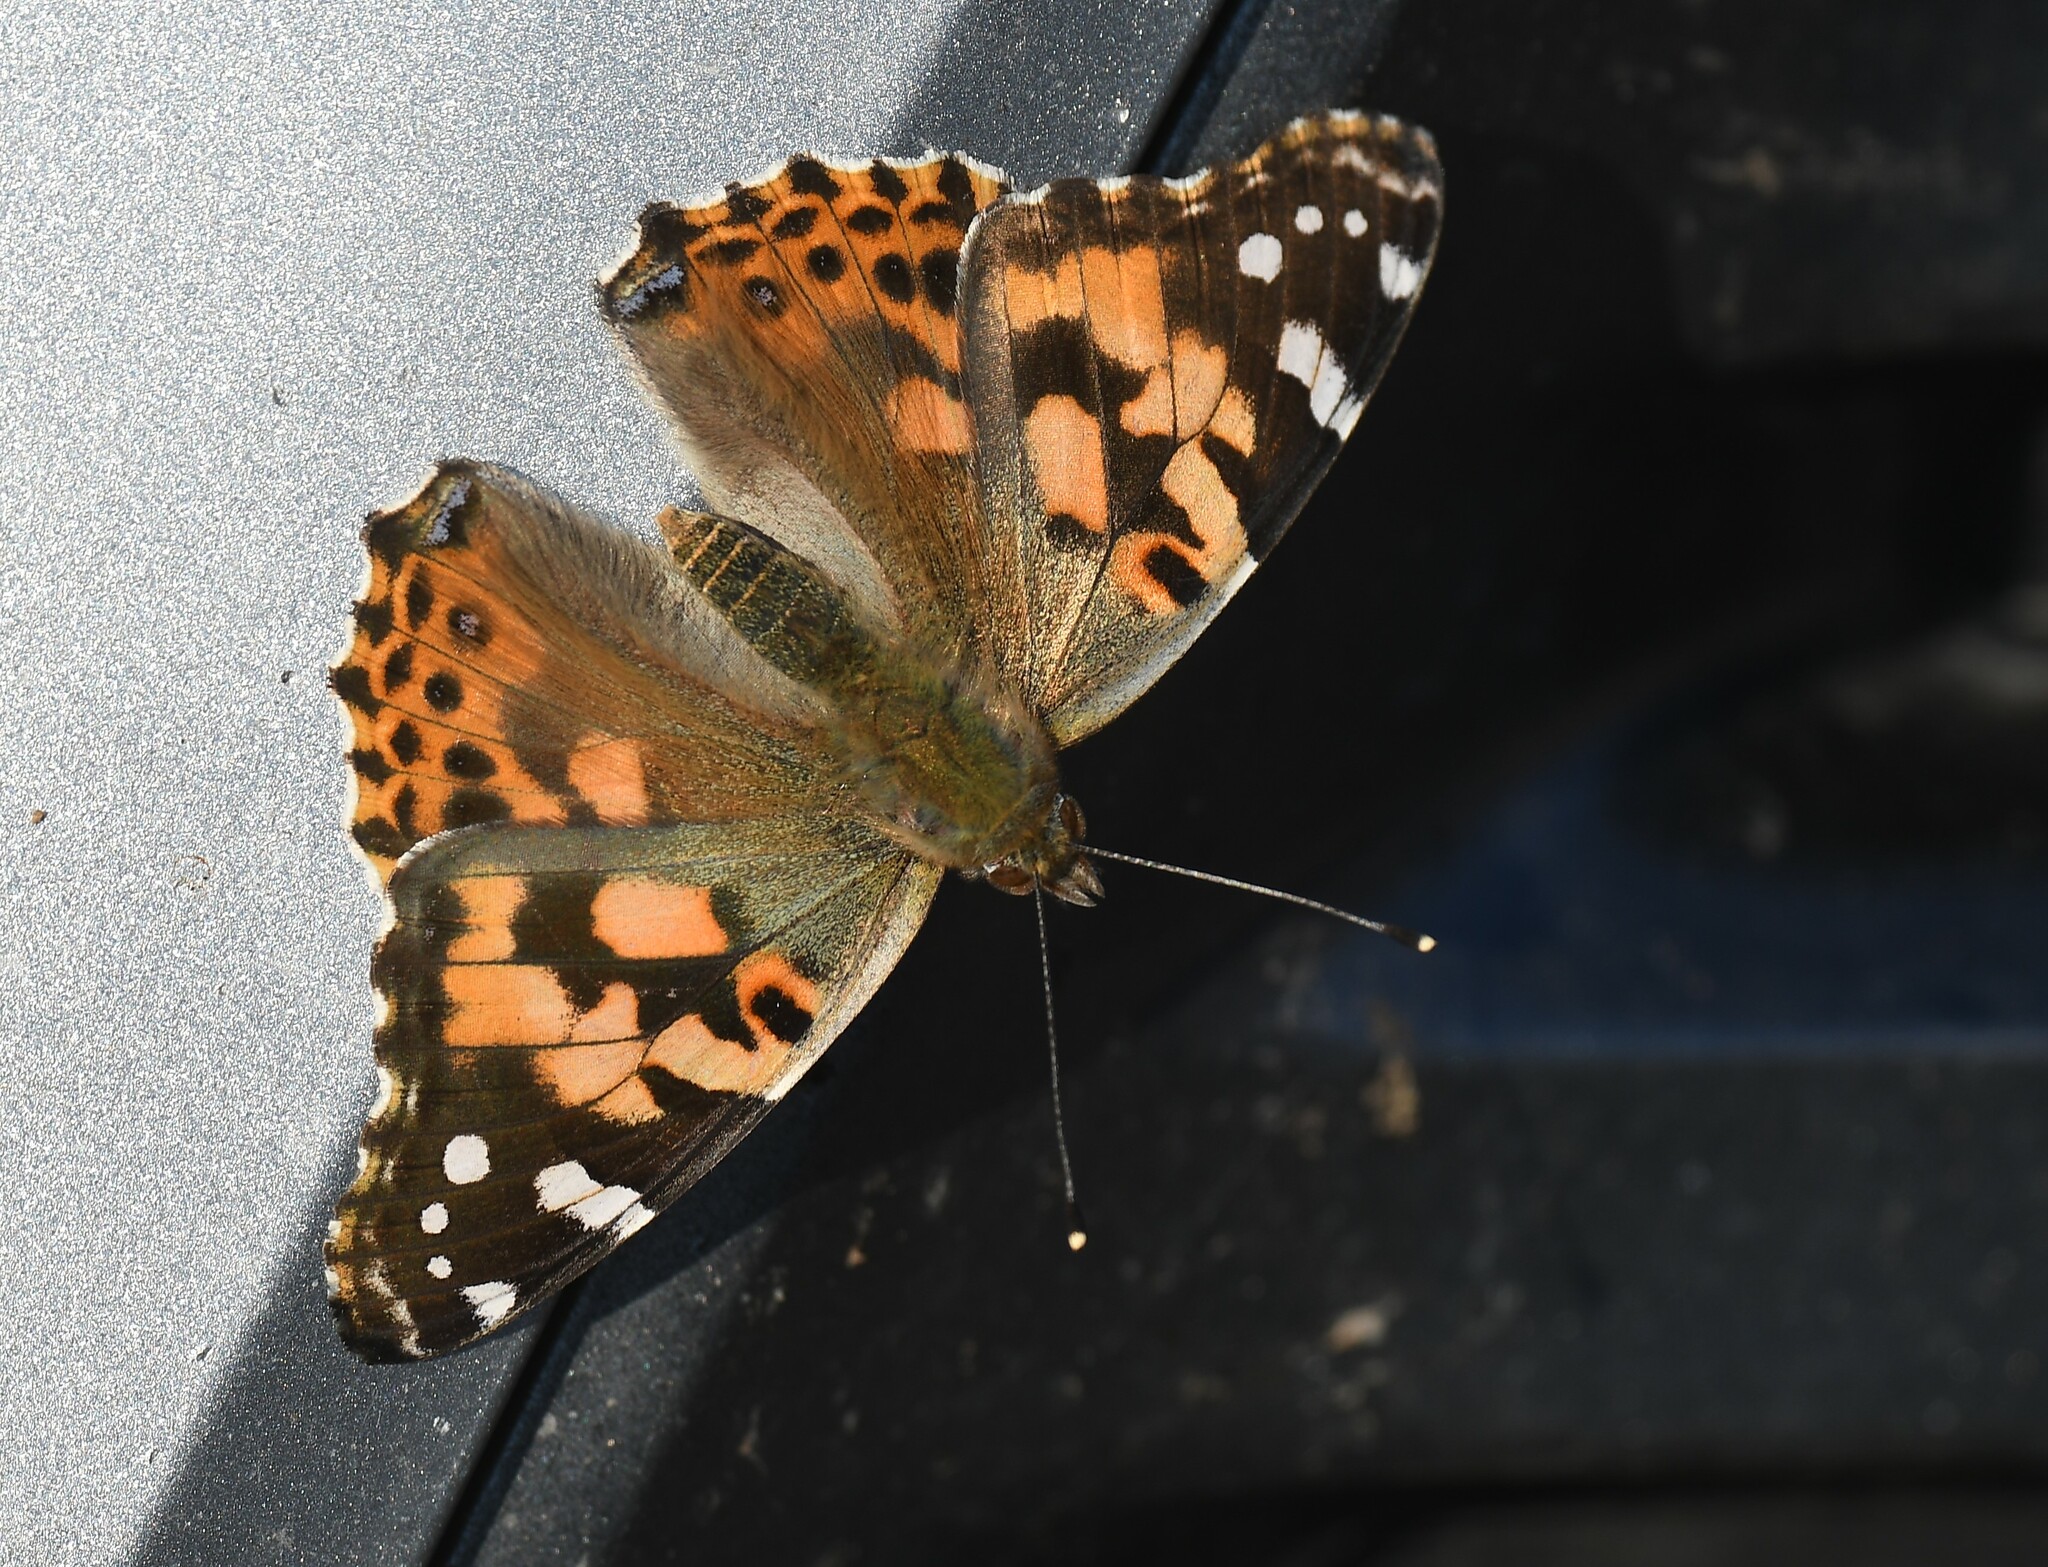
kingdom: Animalia
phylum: Arthropoda
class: Insecta
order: Lepidoptera
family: Nymphalidae
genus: Vanessa
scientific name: Vanessa cardui
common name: Painted lady
